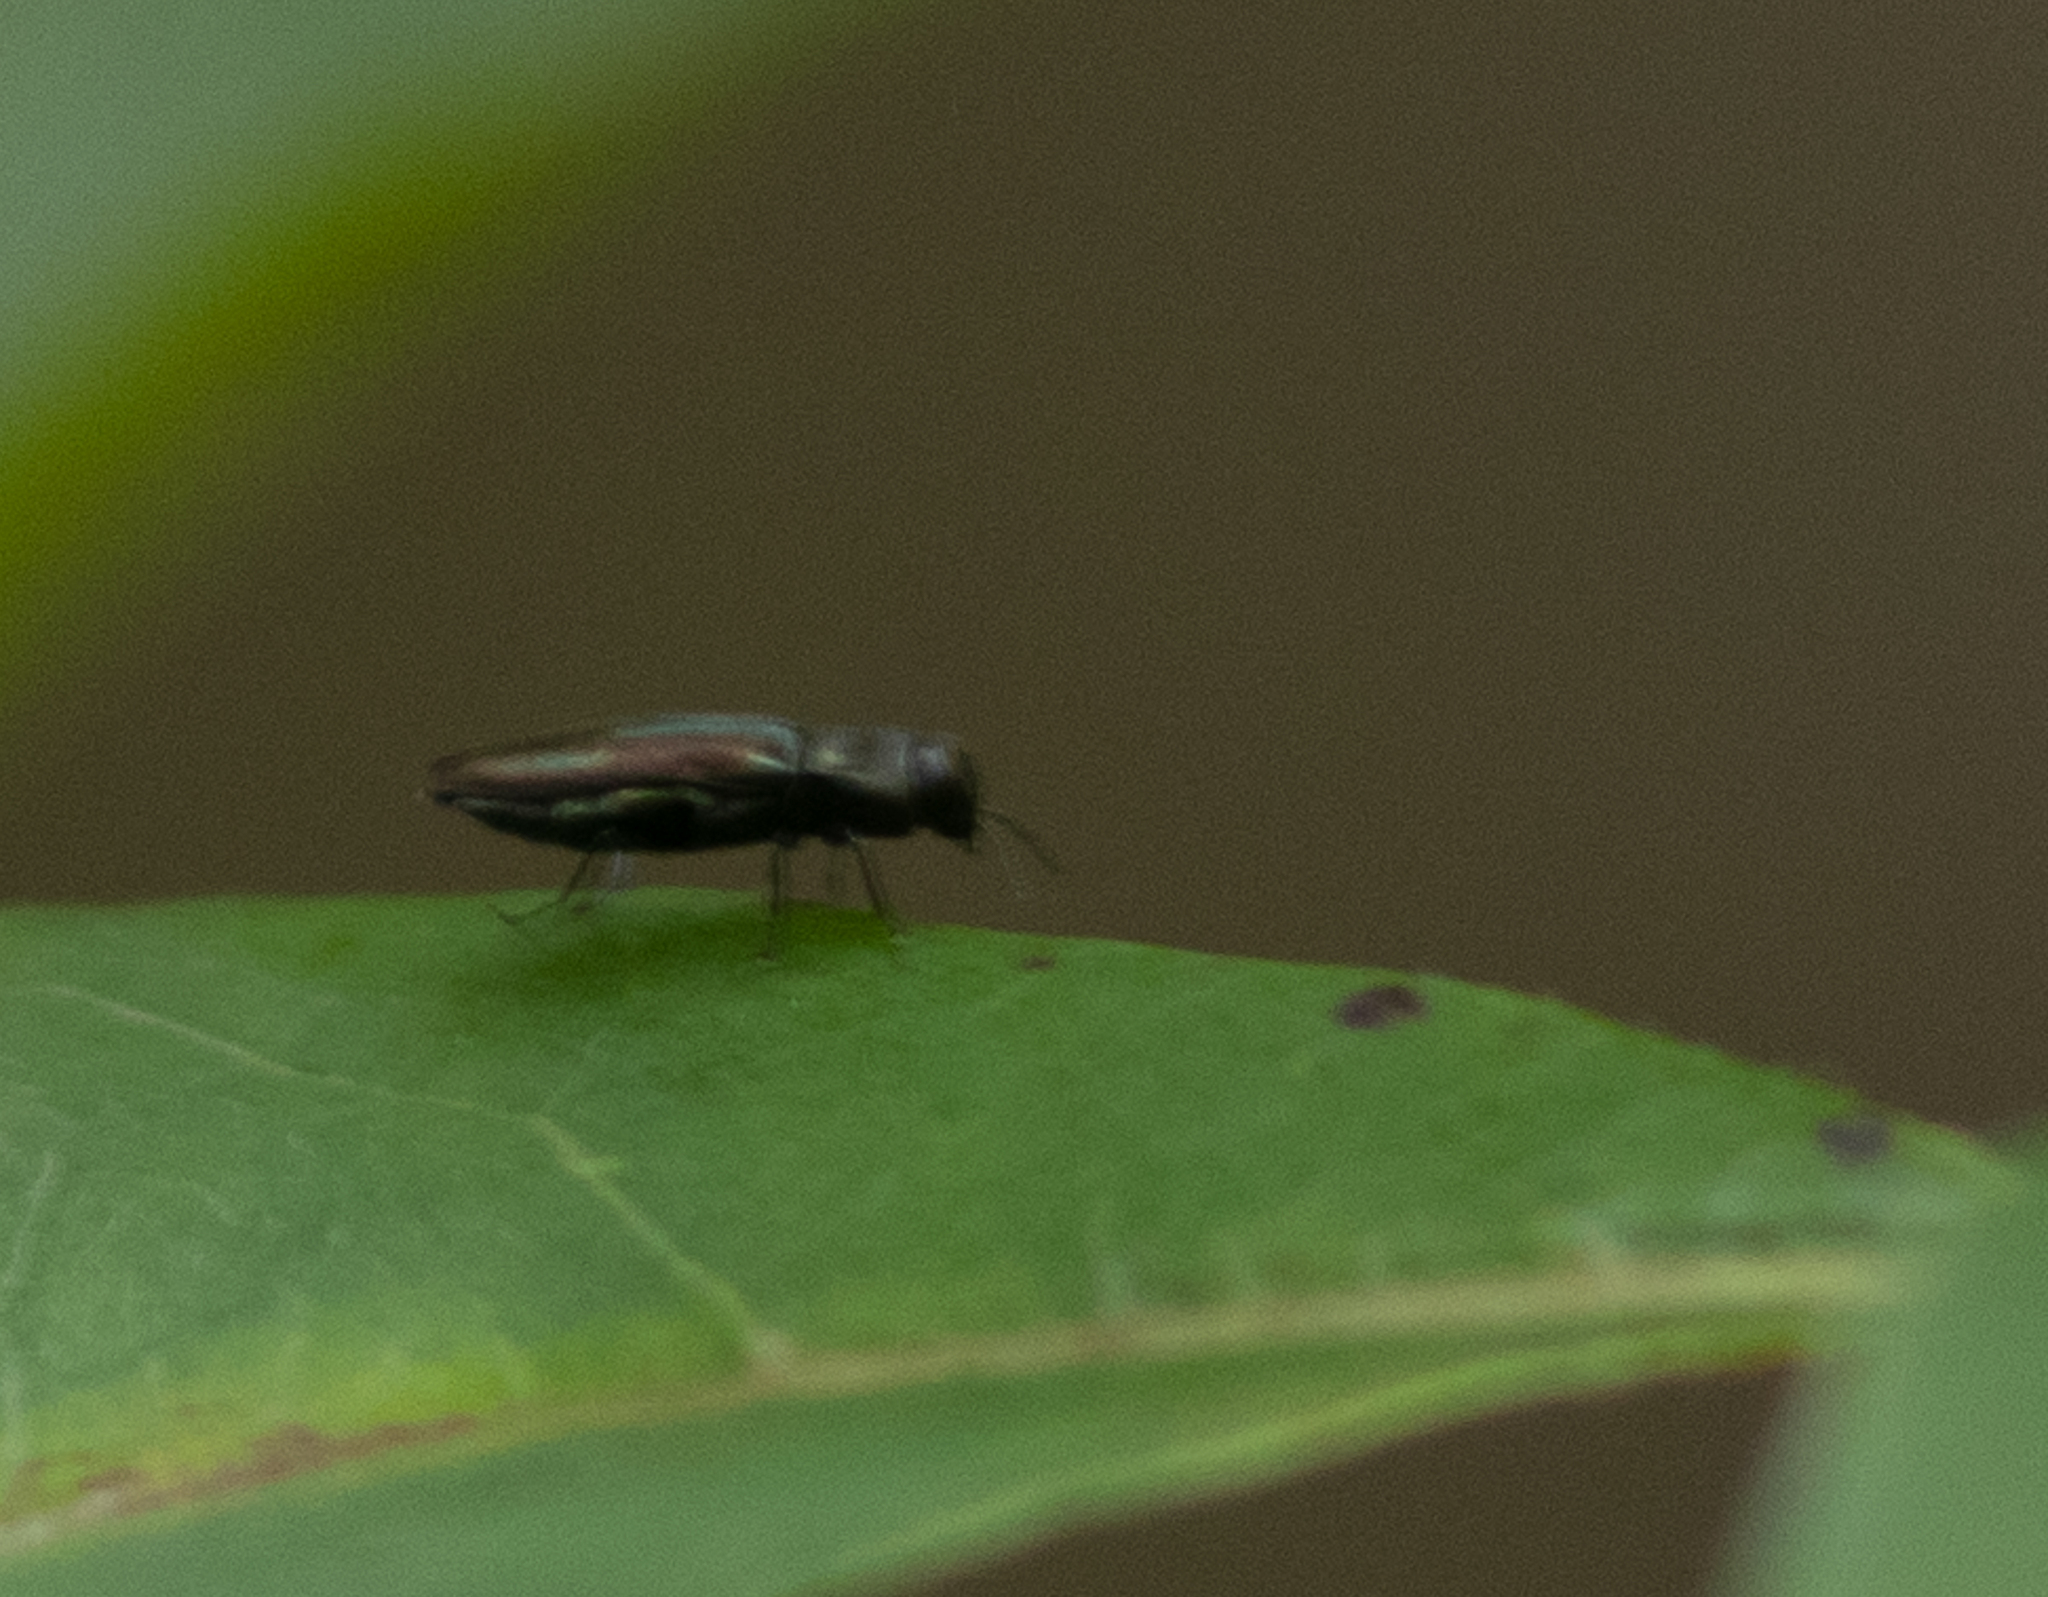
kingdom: Animalia
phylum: Arthropoda
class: Insecta
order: Coleoptera
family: Buprestidae
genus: Anthaxia
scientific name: Anthaxia quercata
